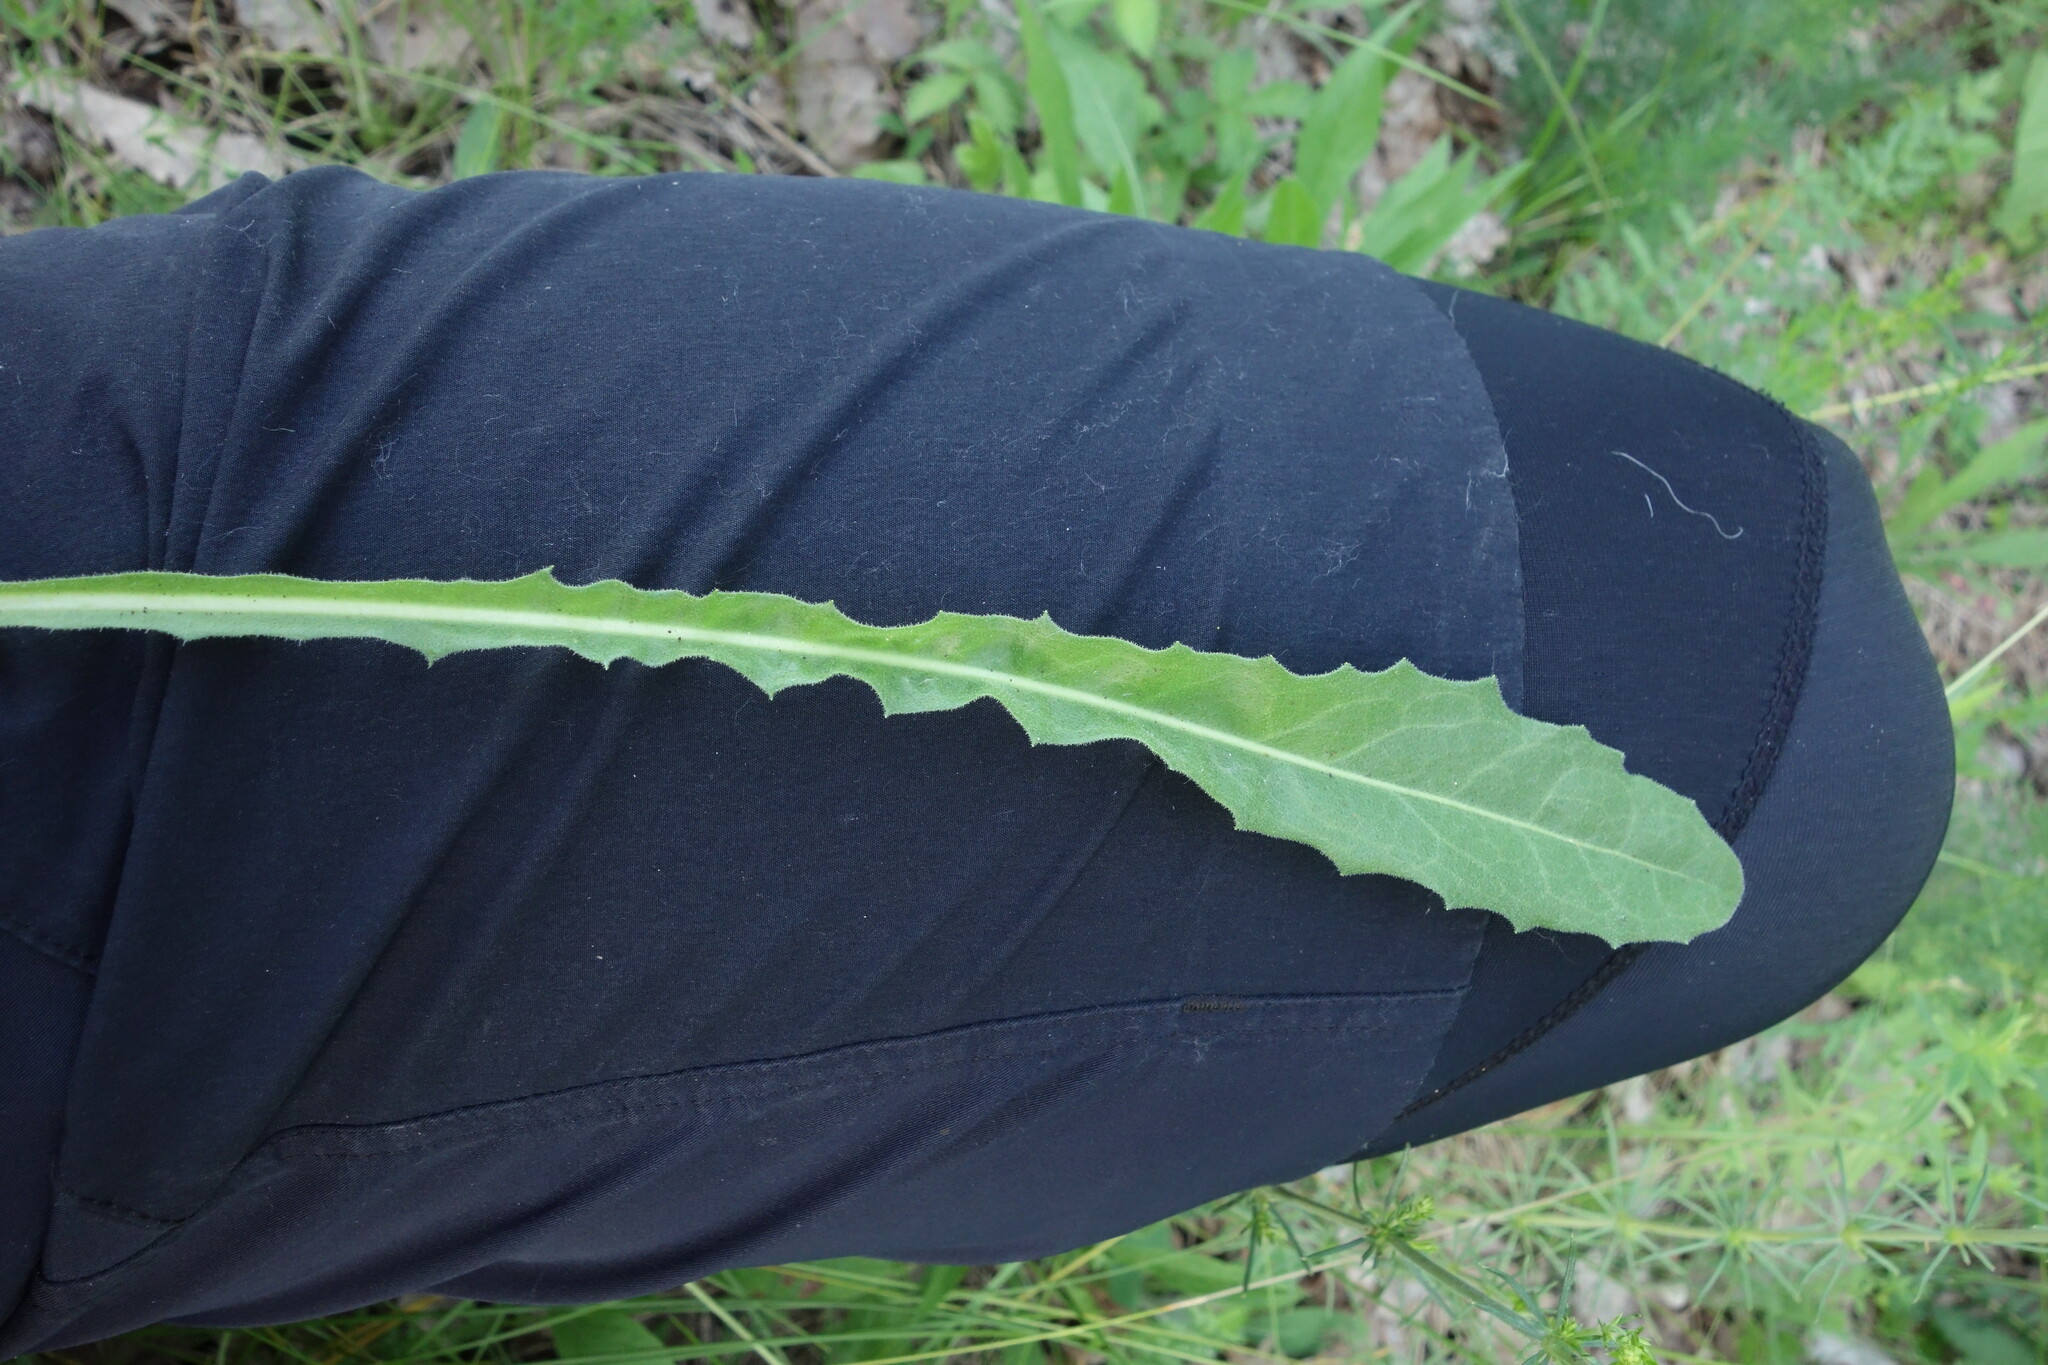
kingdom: Plantae
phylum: Tracheophyta
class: Magnoliopsida
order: Asterales
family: Asteraceae
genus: Leontodon
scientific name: Leontodon hispidus
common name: Rough hawkbit
